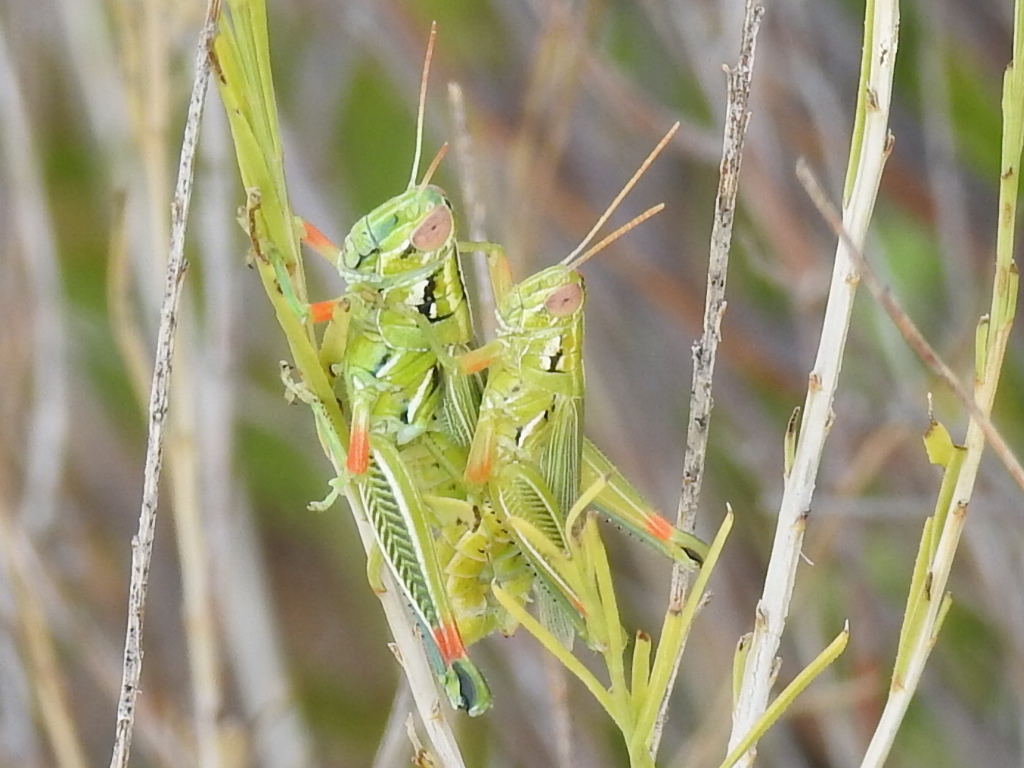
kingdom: Animalia
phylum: Arthropoda
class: Insecta
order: Orthoptera
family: Acrididae
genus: Hesperotettix
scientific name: Hesperotettix viridis
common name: Meadow purple-striped grasshopper
